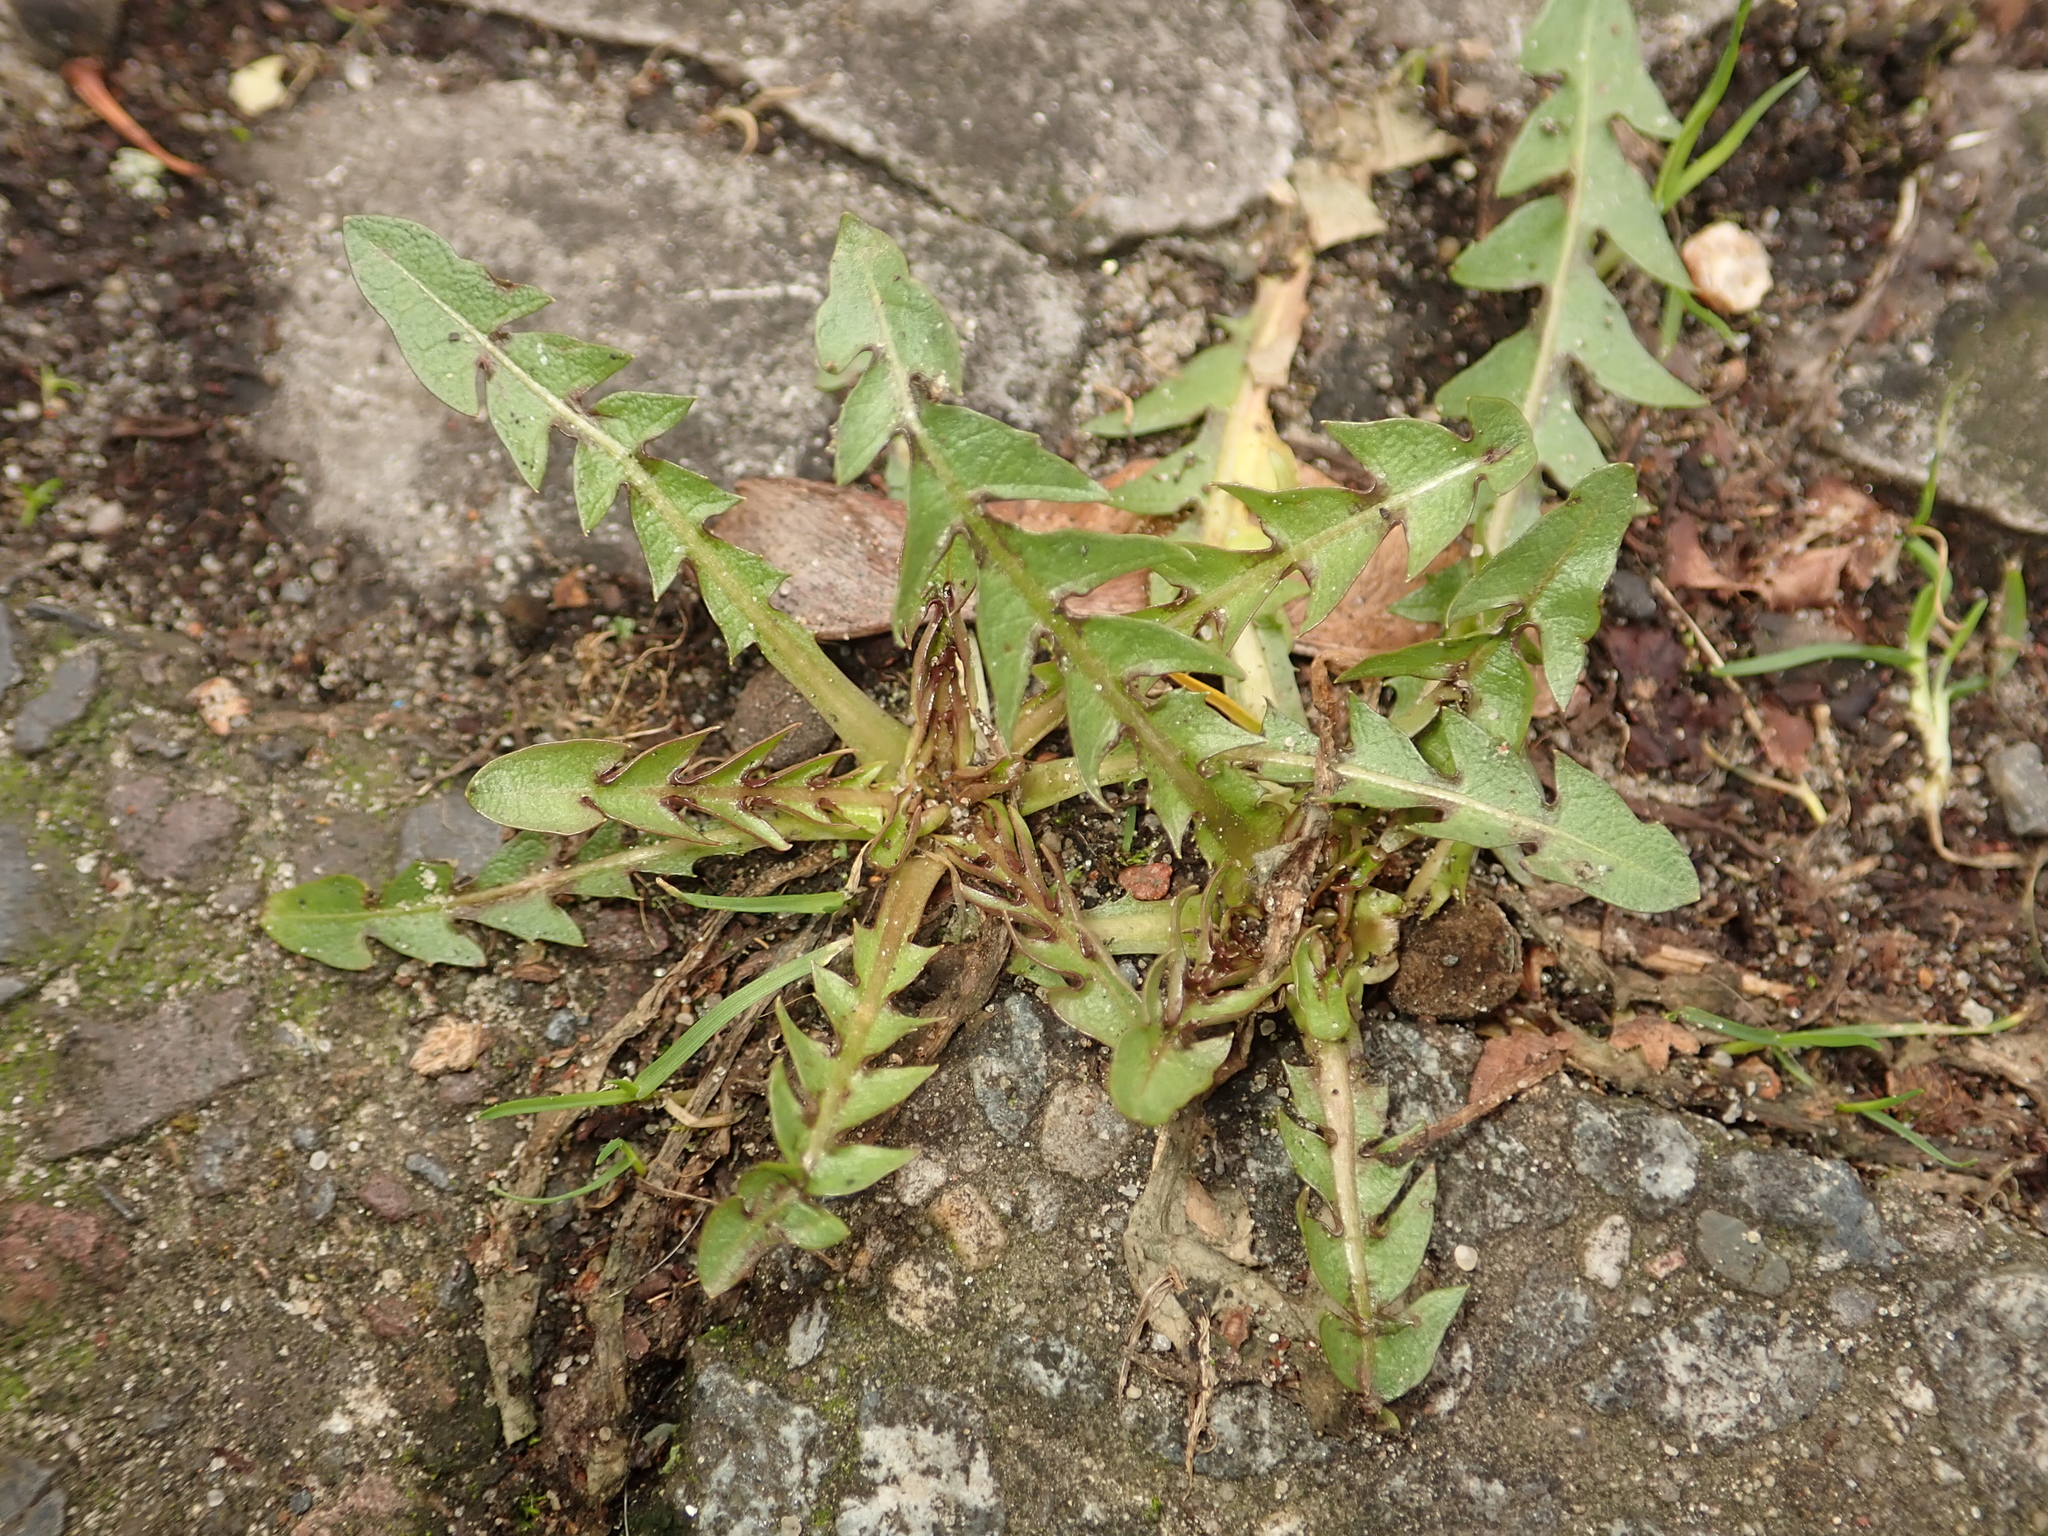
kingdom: Plantae
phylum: Tracheophyta
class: Magnoliopsida
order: Asterales
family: Asteraceae
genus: Taraxacum
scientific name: Taraxacum officinale
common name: Common dandelion
